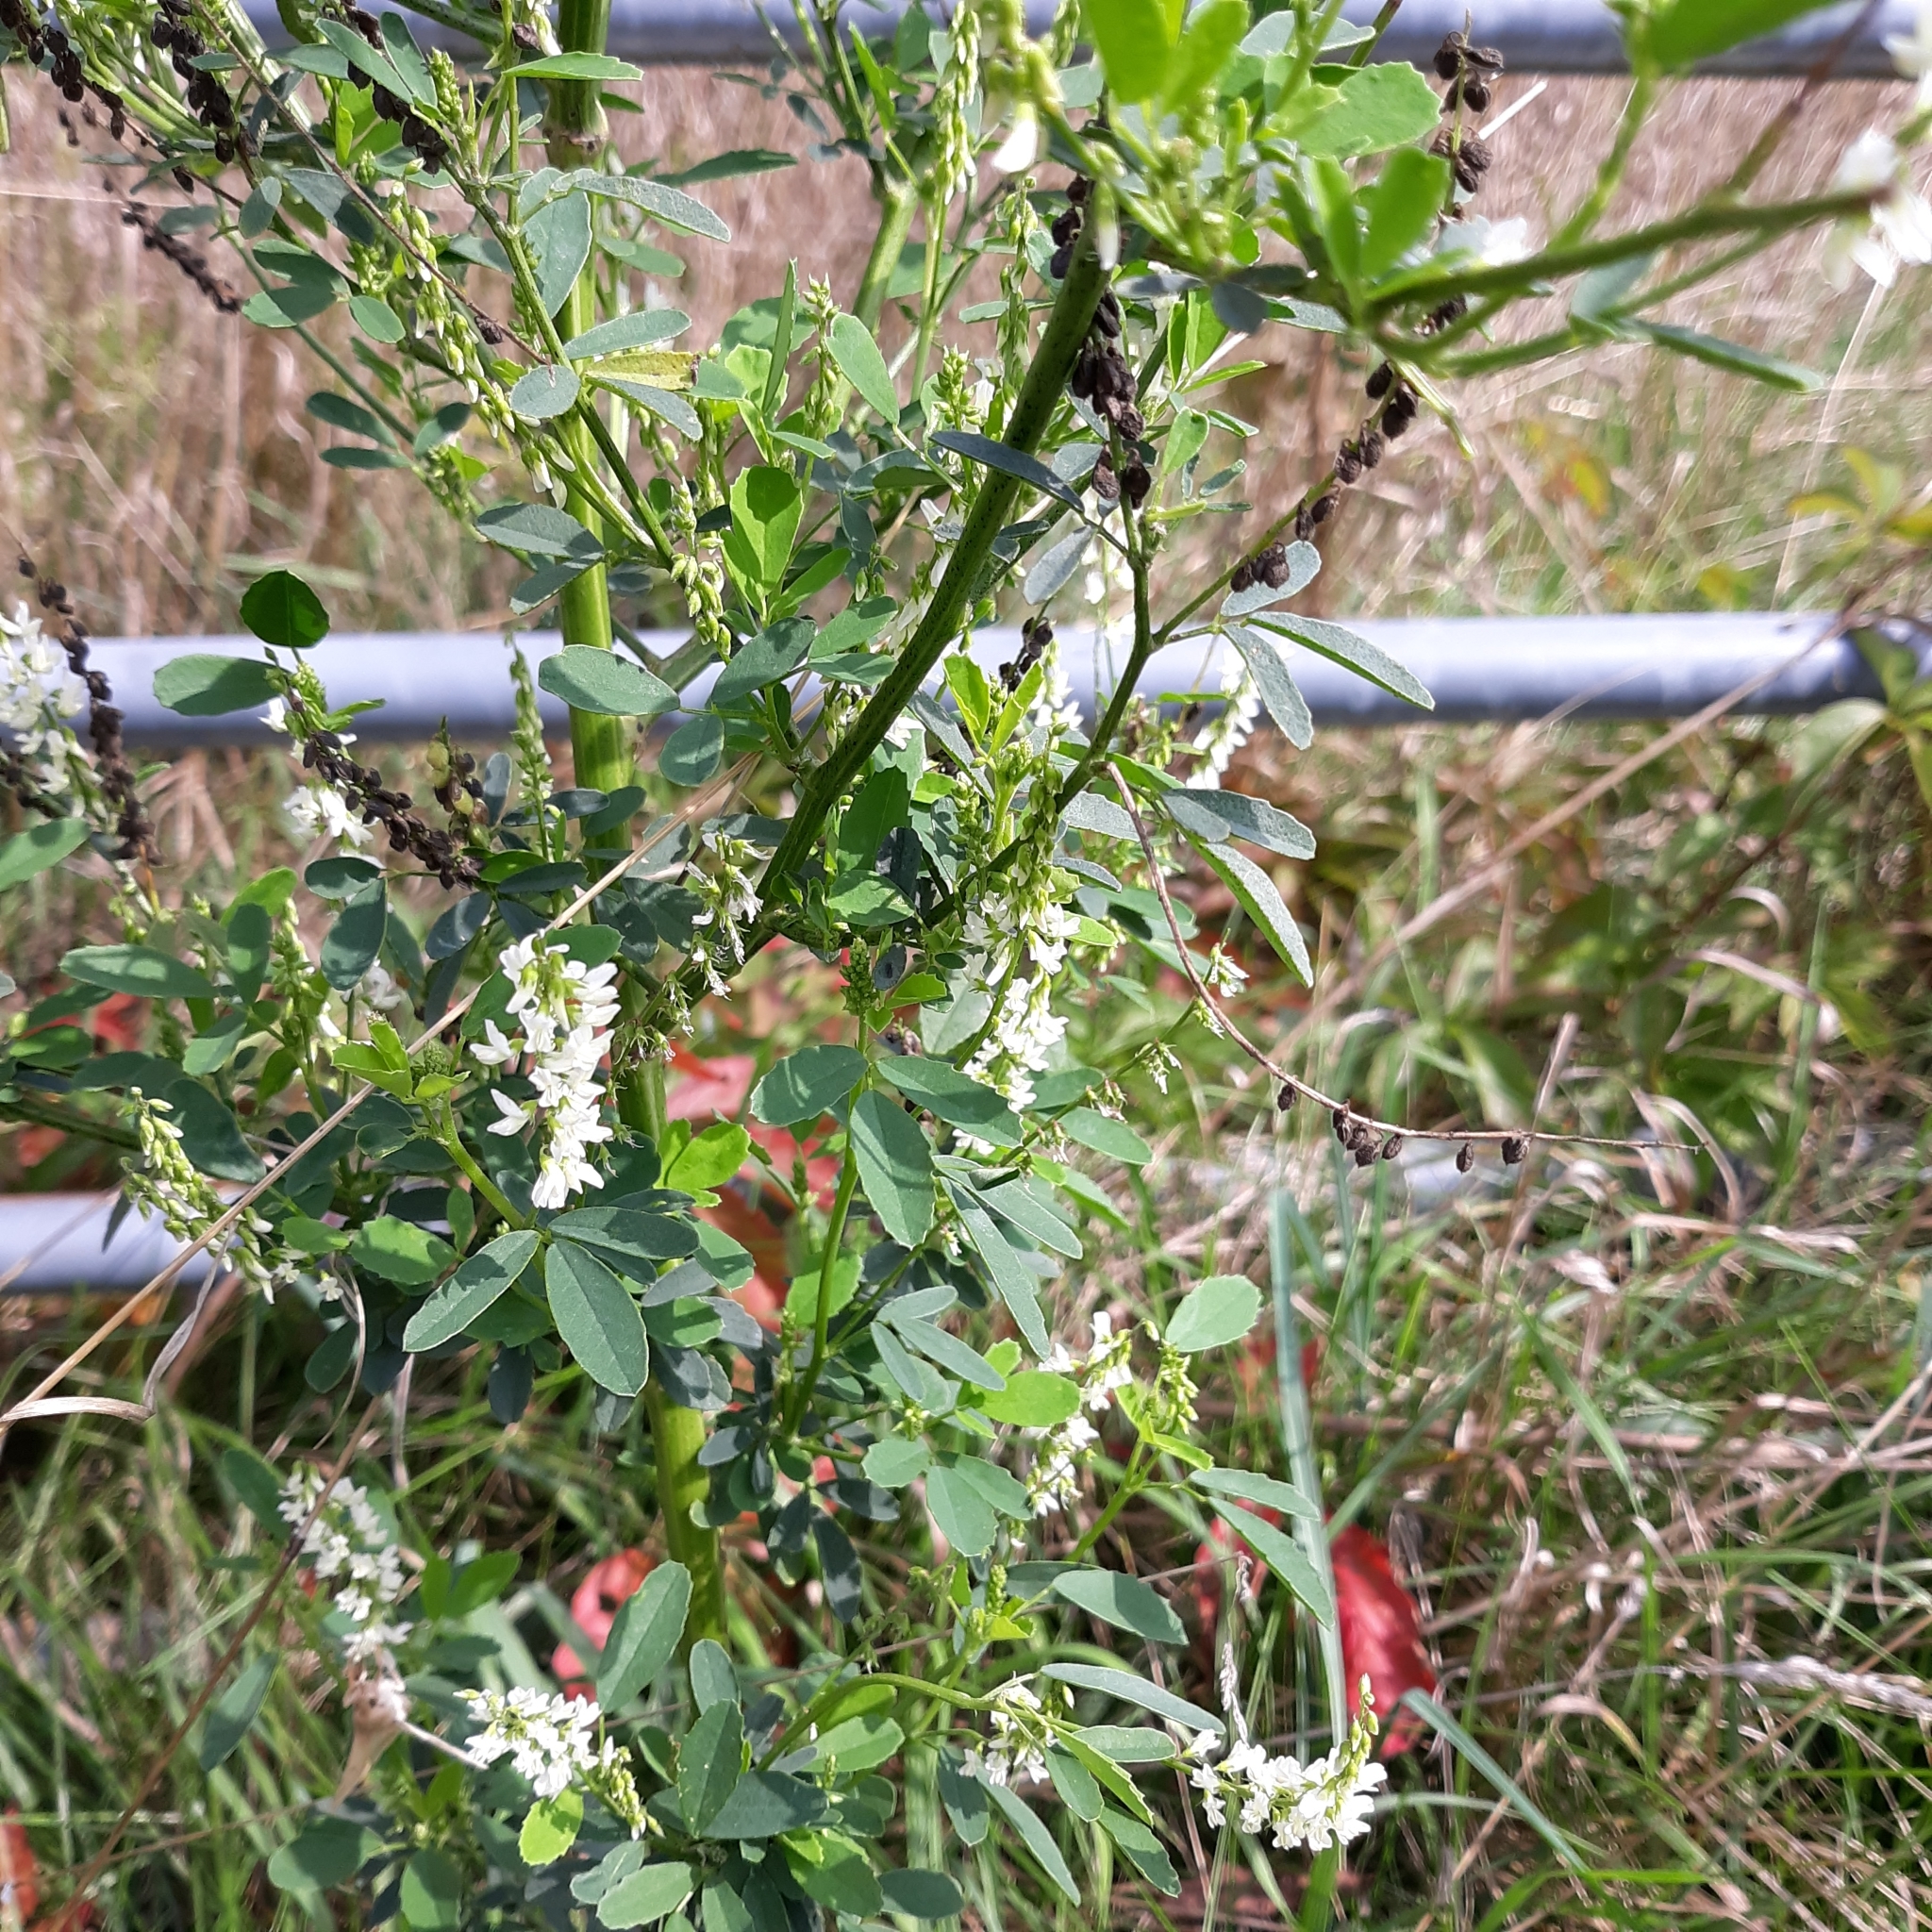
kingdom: Plantae
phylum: Tracheophyta
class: Magnoliopsida
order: Fabales
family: Fabaceae
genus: Melilotus
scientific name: Melilotus albus
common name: White melilot
